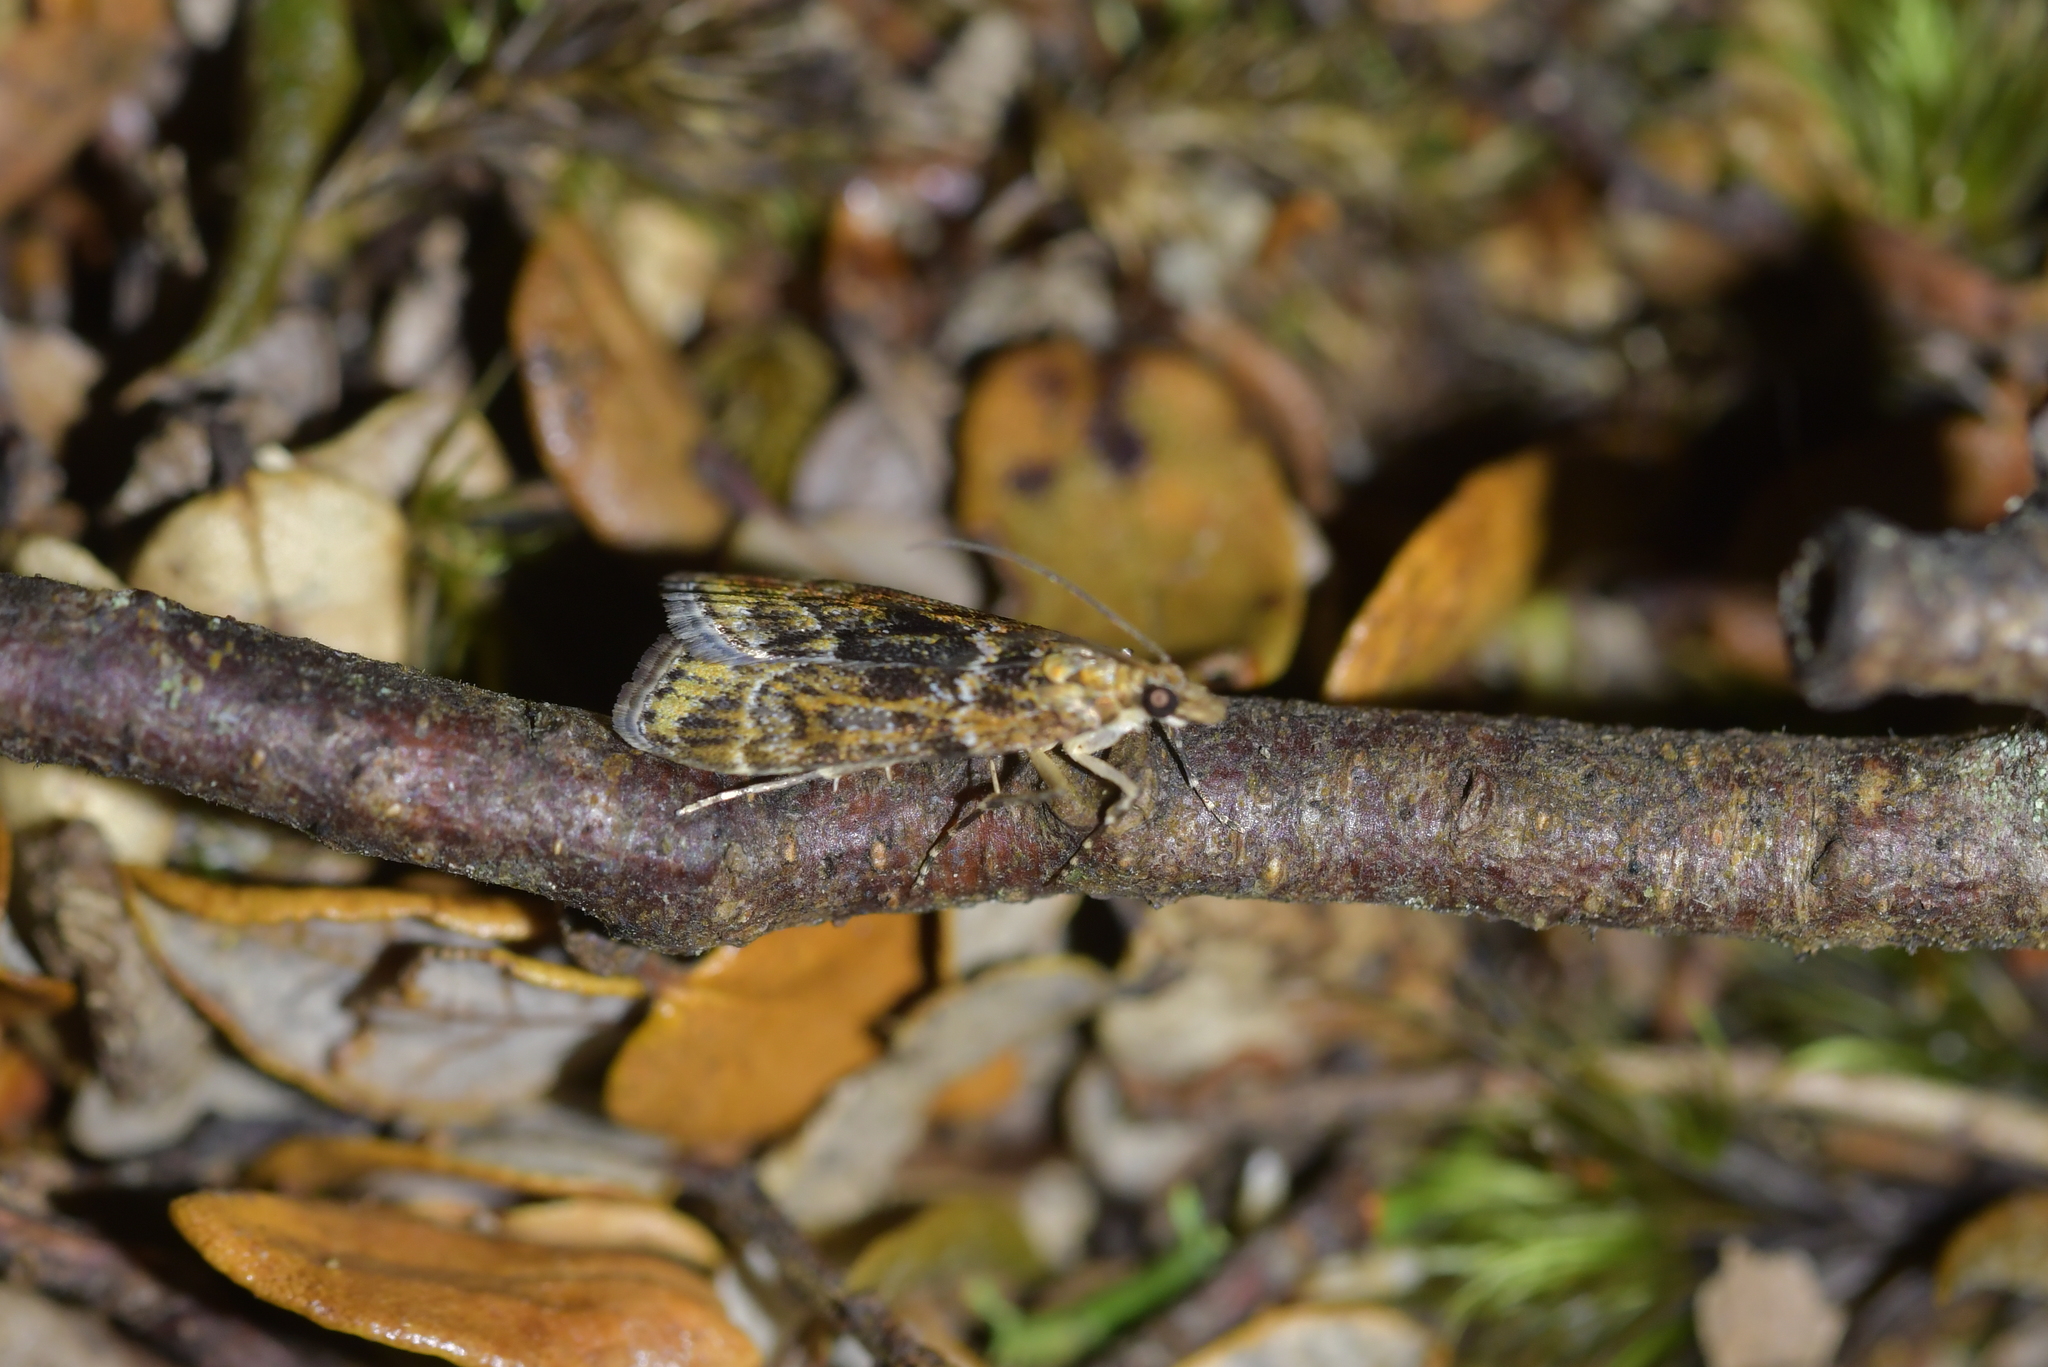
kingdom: Animalia
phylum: Arthropoda
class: Insecta
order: Lepidoptera
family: Crambidae
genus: Scoparia
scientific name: Scoparia animosa
